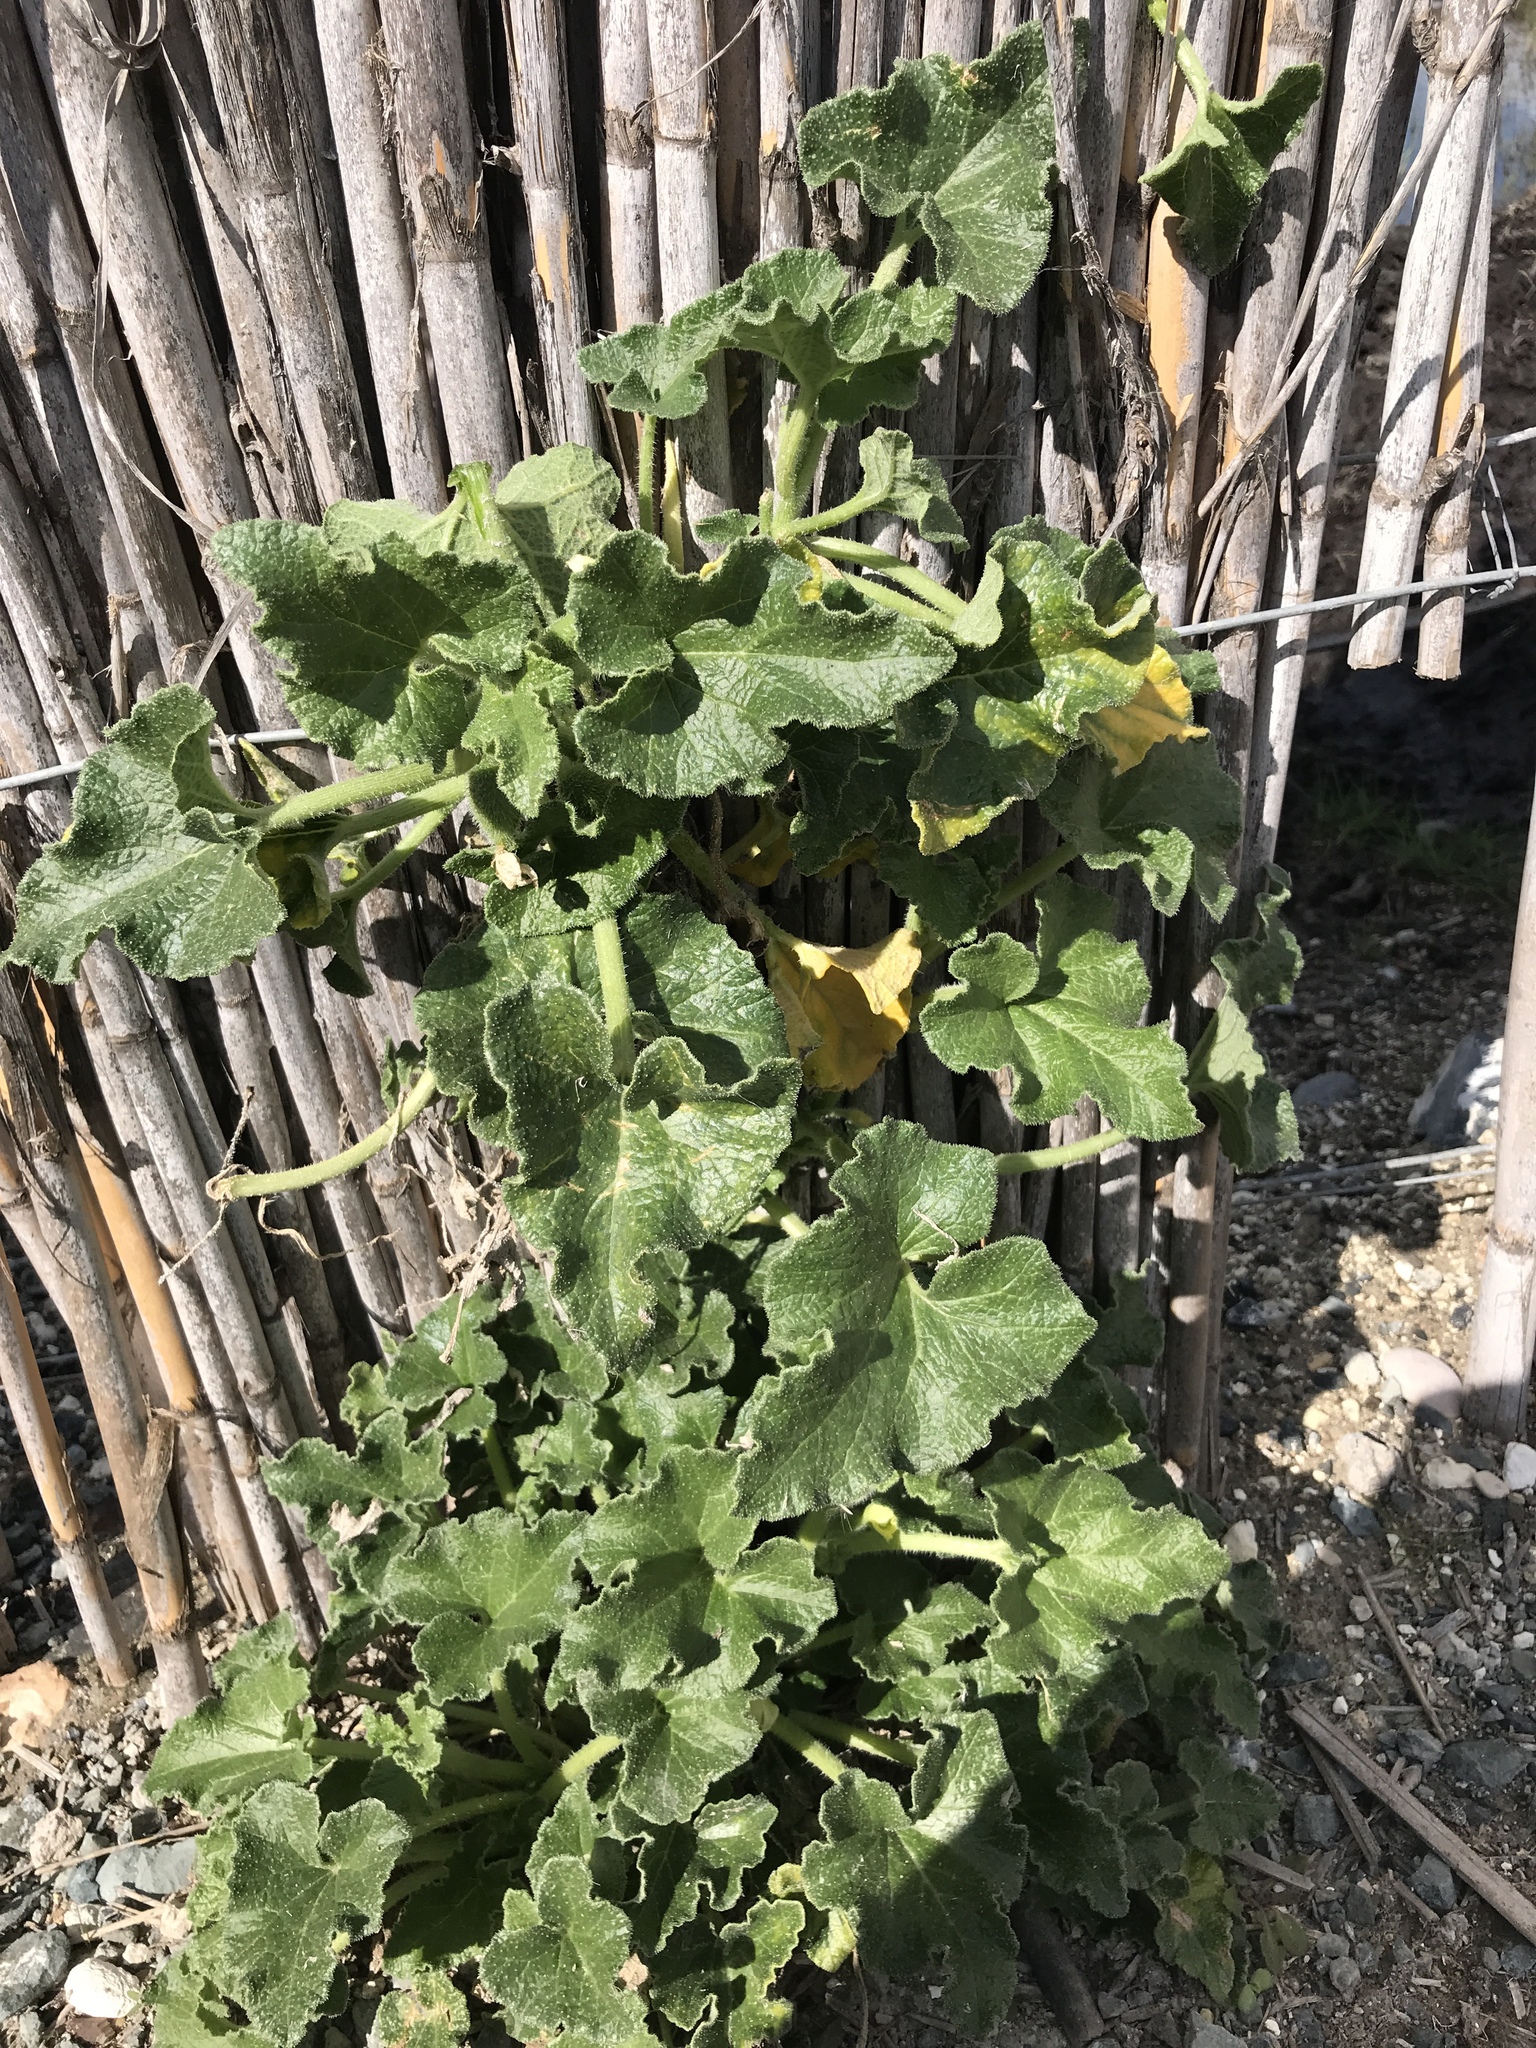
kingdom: Plantae
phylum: Tracheophyta
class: Magnoliopsida
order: Cucurbitales
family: Cucurbitaceae
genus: Ecballium
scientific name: Ecballium elaterium
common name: Squirting cucumber
